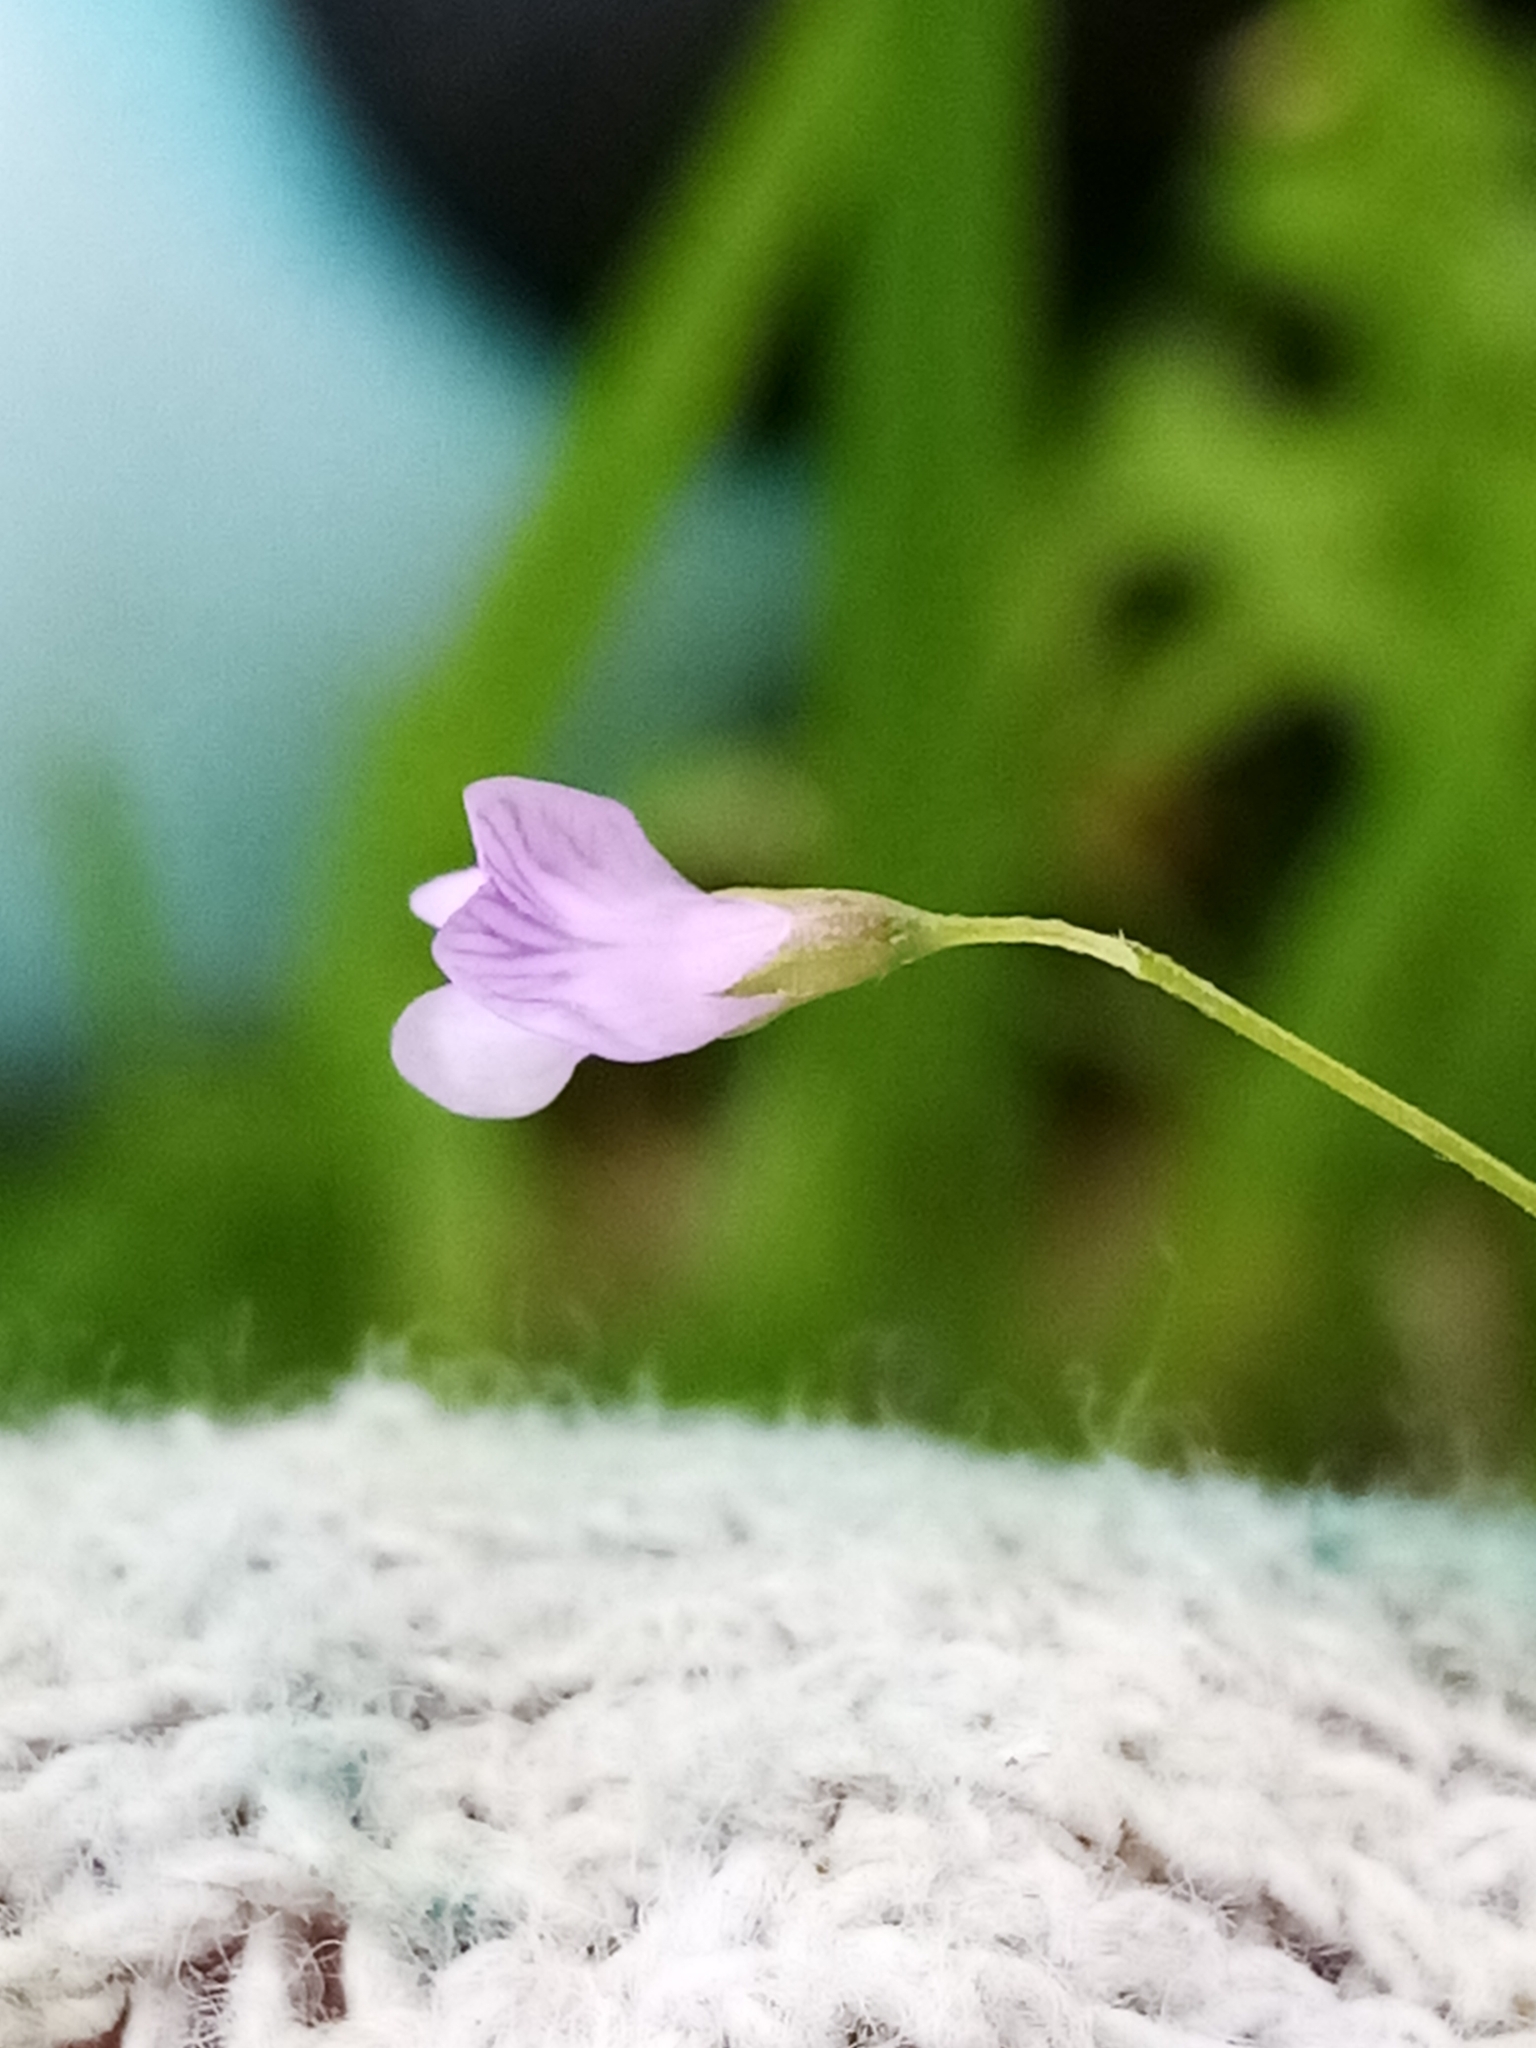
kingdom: Plantae
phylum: Tracheophyta
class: Magnoliopsida
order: Fabales
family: Fabaceae
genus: Vicia
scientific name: Vicia tetrasperma
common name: Smooth tare
